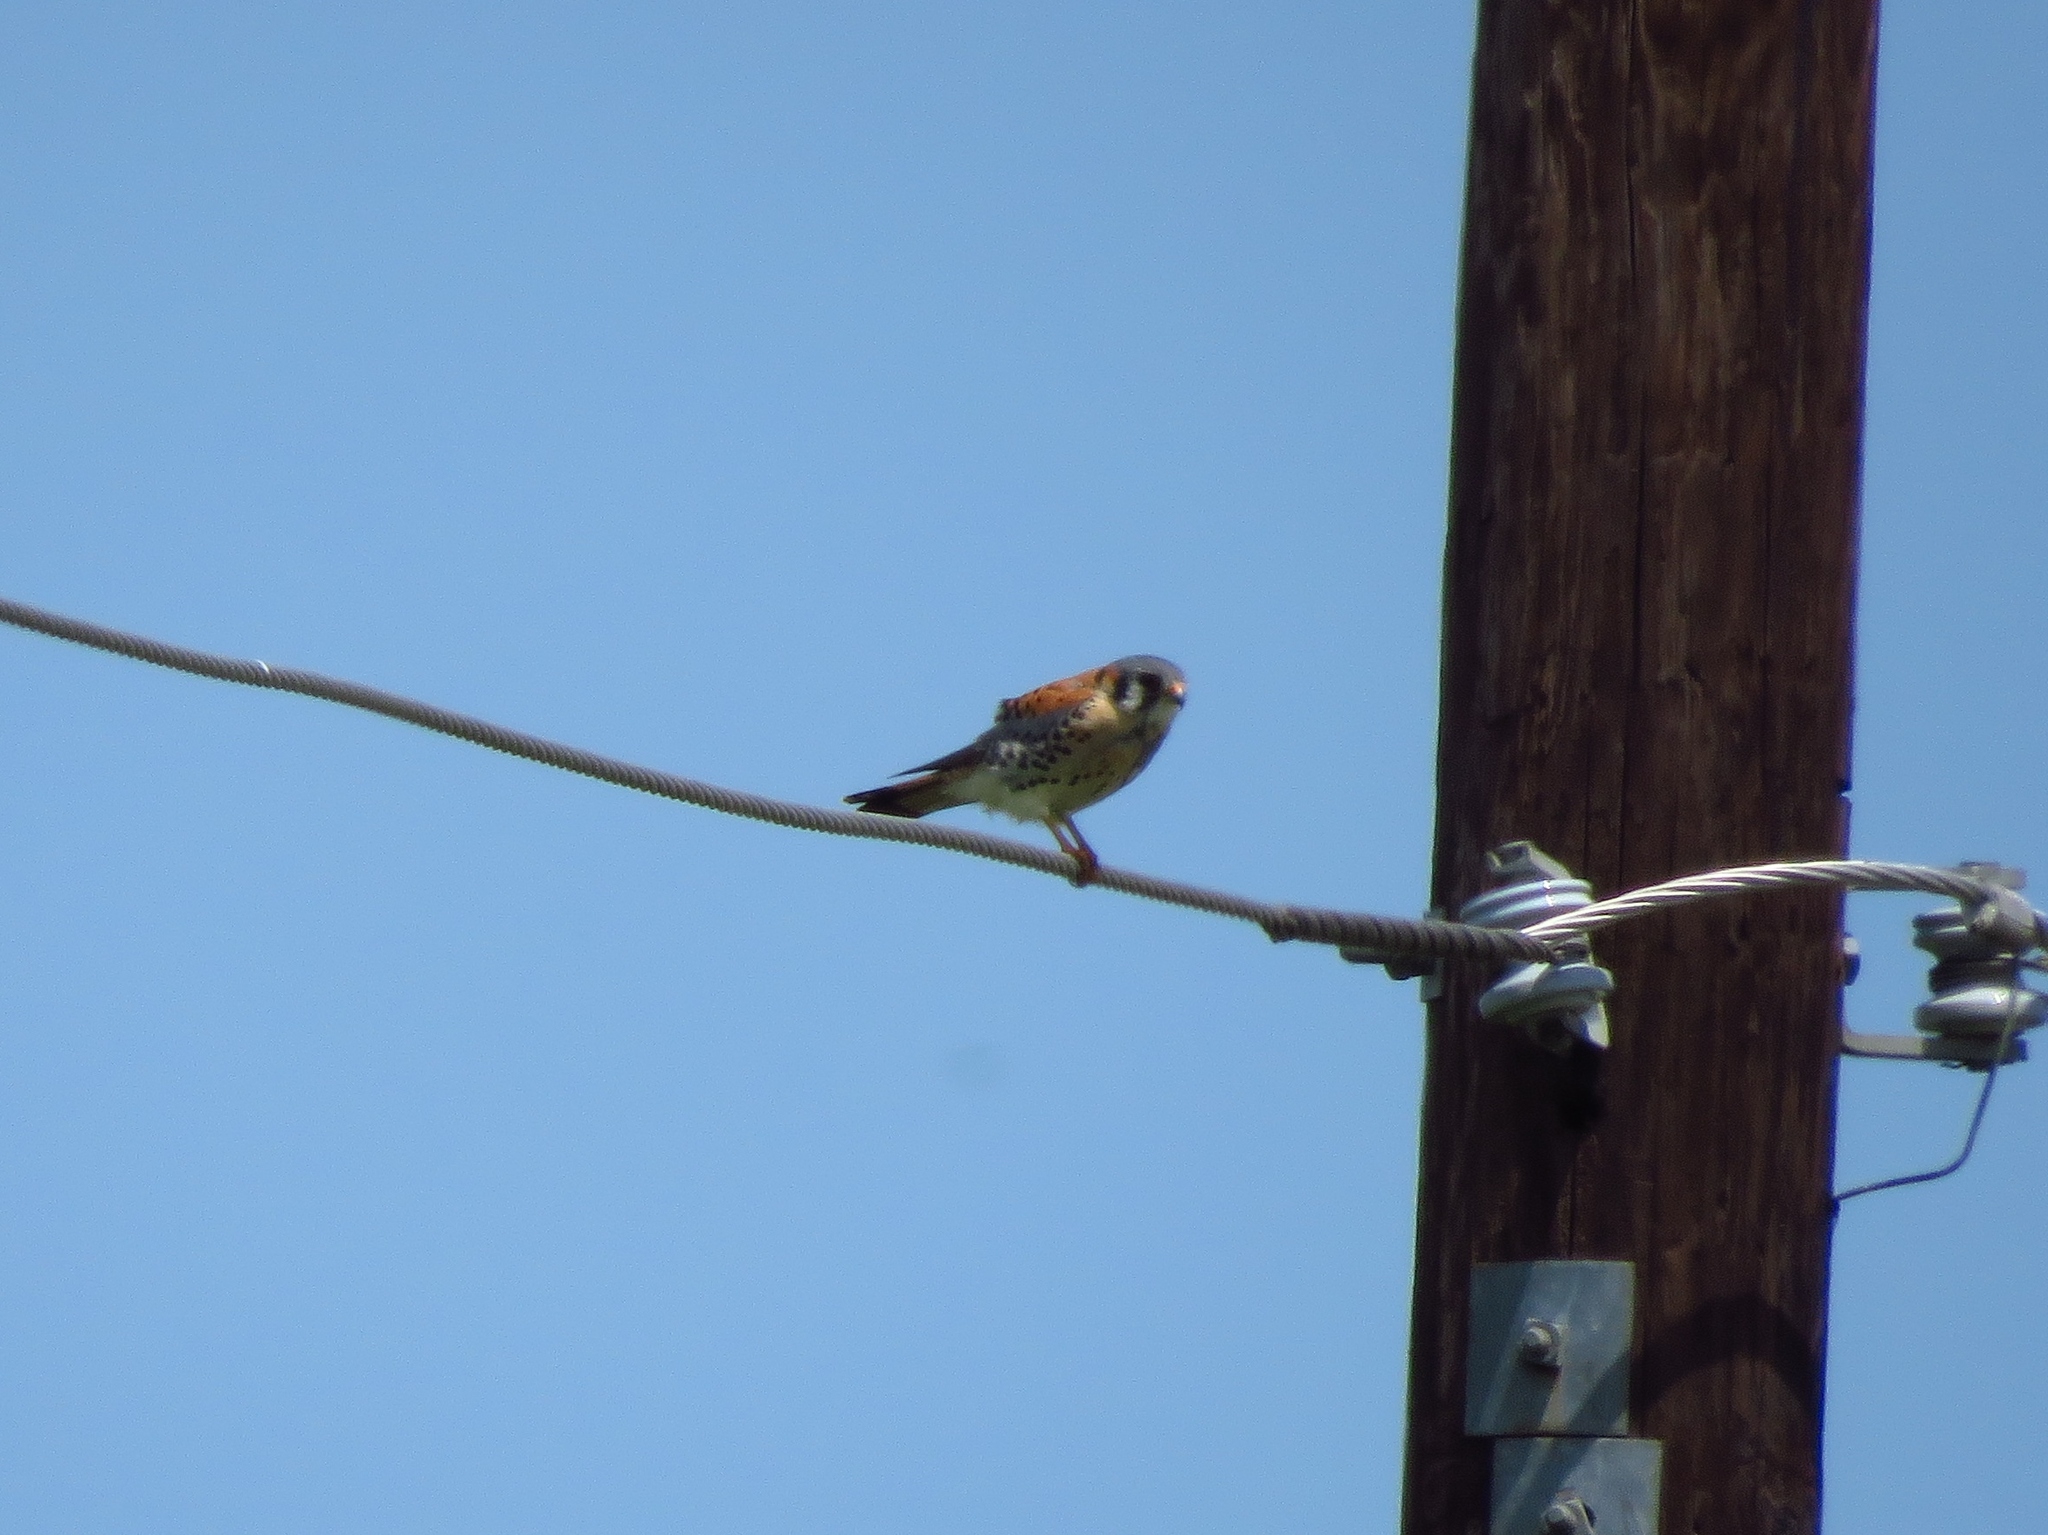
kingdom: Animalia
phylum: Chordata
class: Aves
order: Falconiformes
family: Falconidae
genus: Falco
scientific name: Falco sparverius
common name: American kestrel
